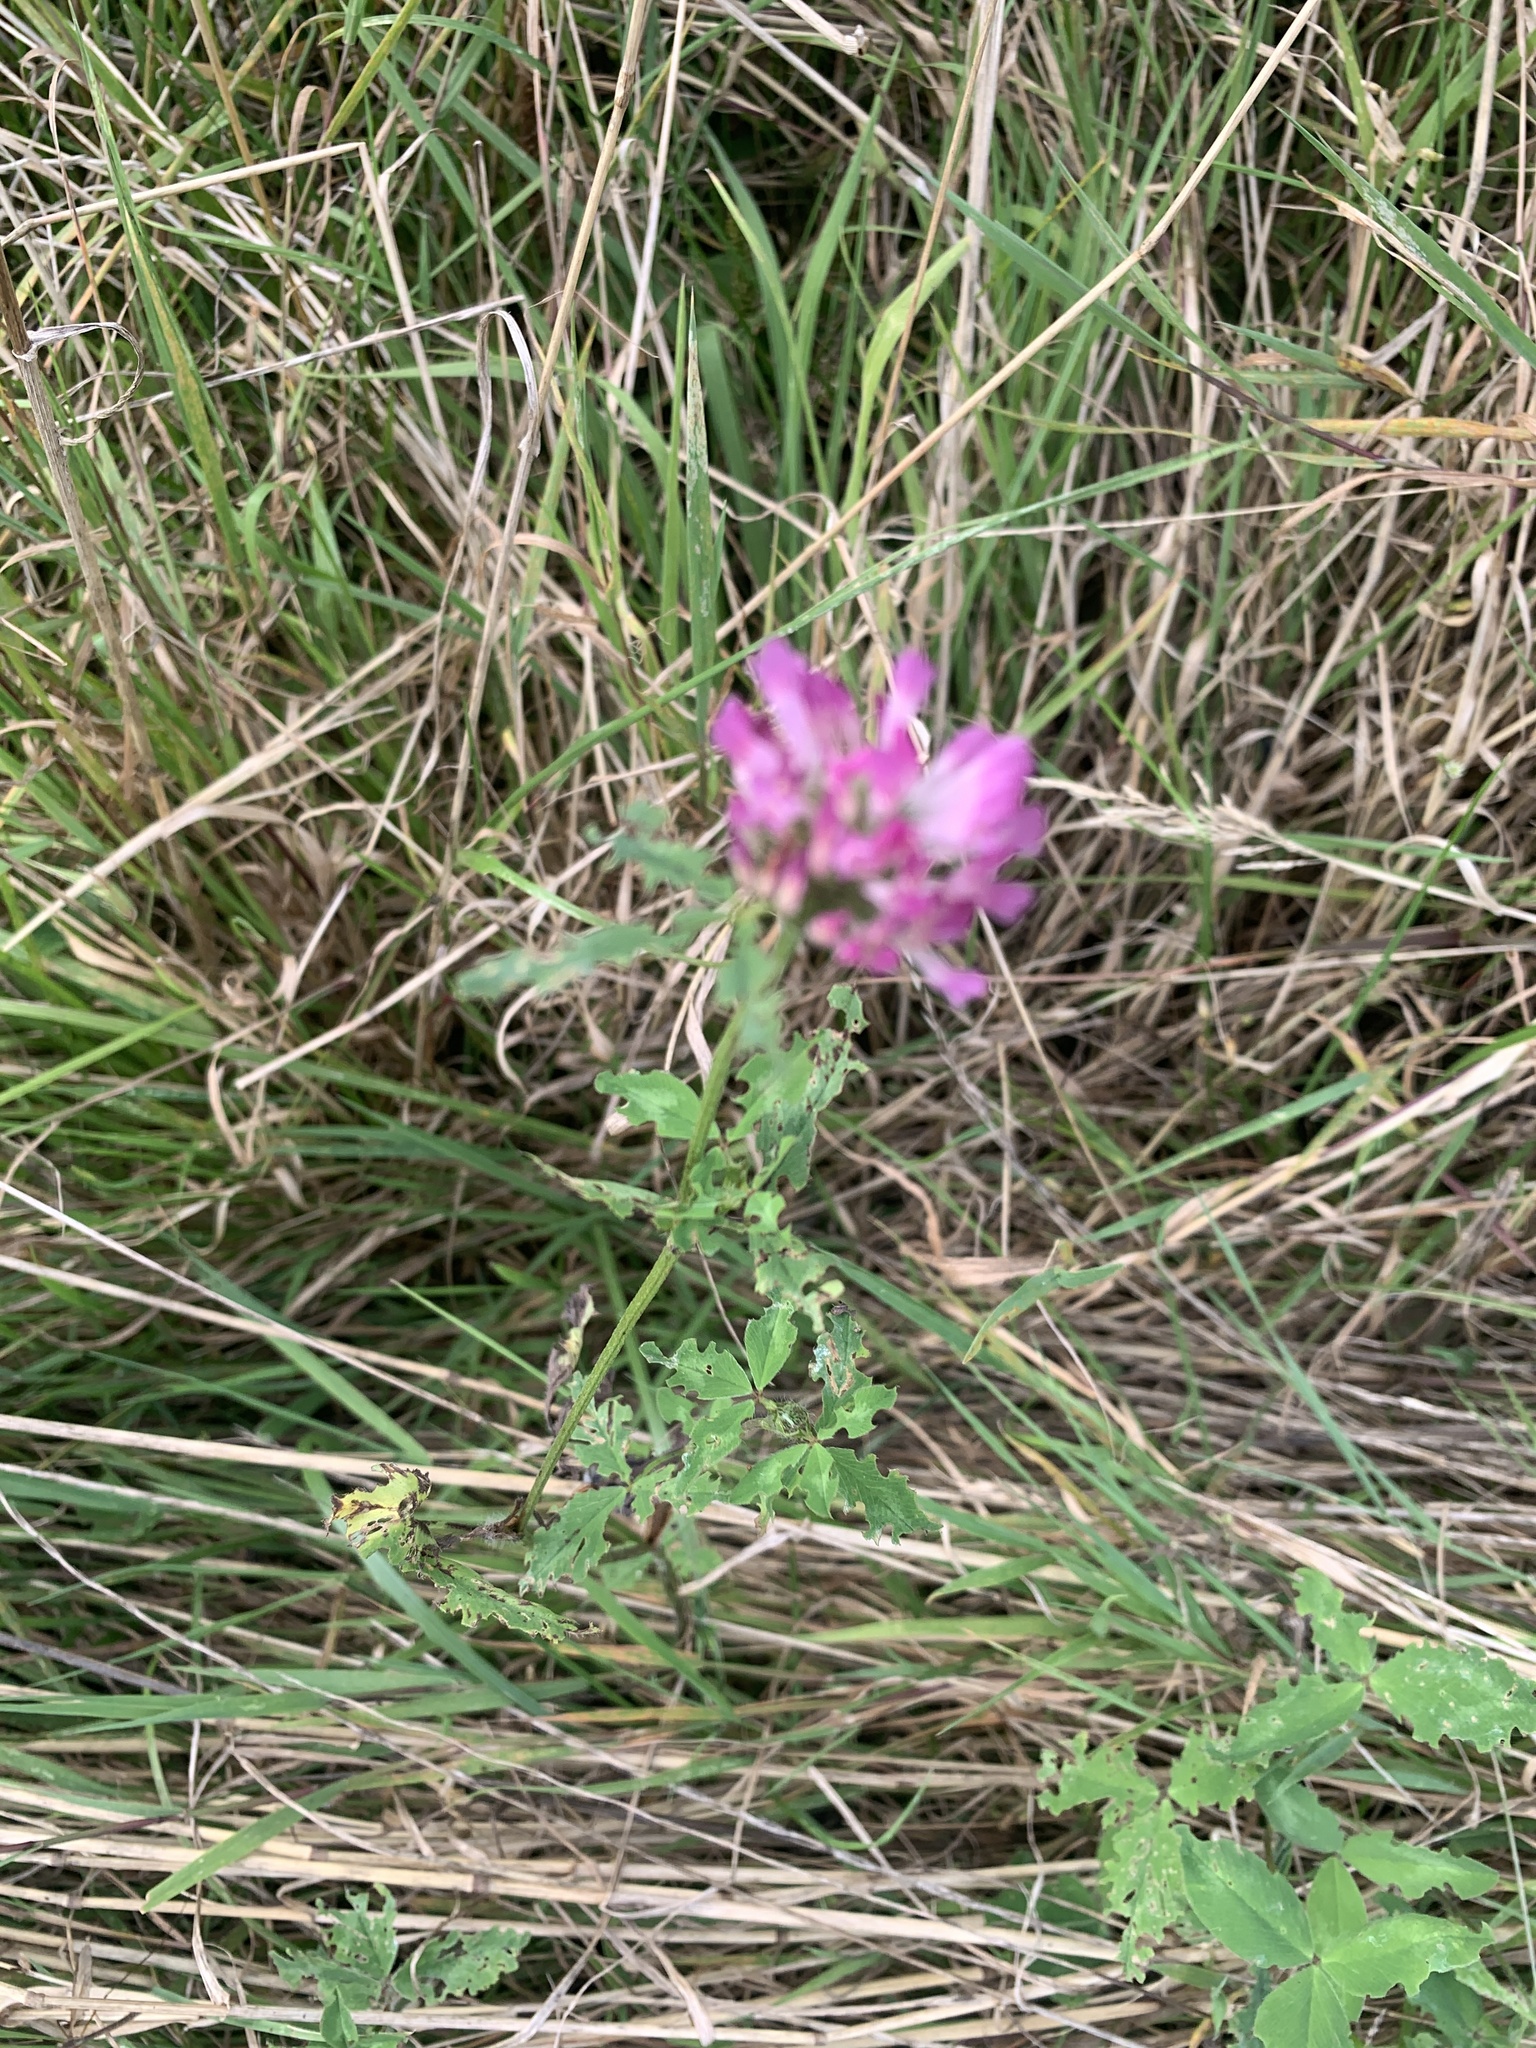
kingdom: Plantae
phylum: Tracheophyta
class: Magnoliopsida
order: Fabales
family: Fabaceae
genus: Trifolium
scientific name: Trifolium pratense
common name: Red clover
